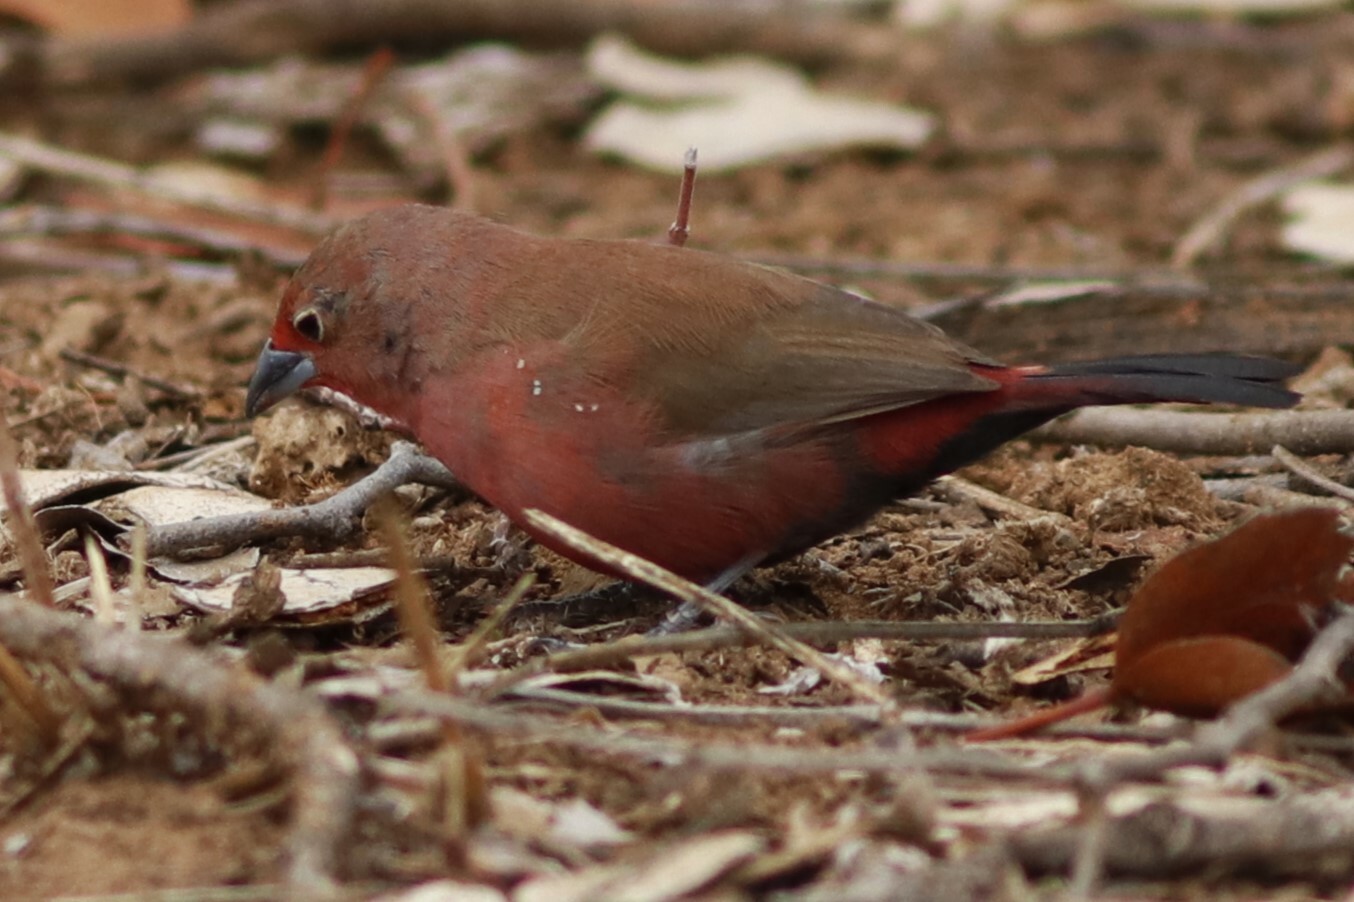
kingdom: Animalia
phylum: Chordata
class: Aves
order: Passeriformes
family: Estrildidae
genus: Lagonosticta
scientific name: Lagonosticta rhodopareia
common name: Jameson's firefinch
